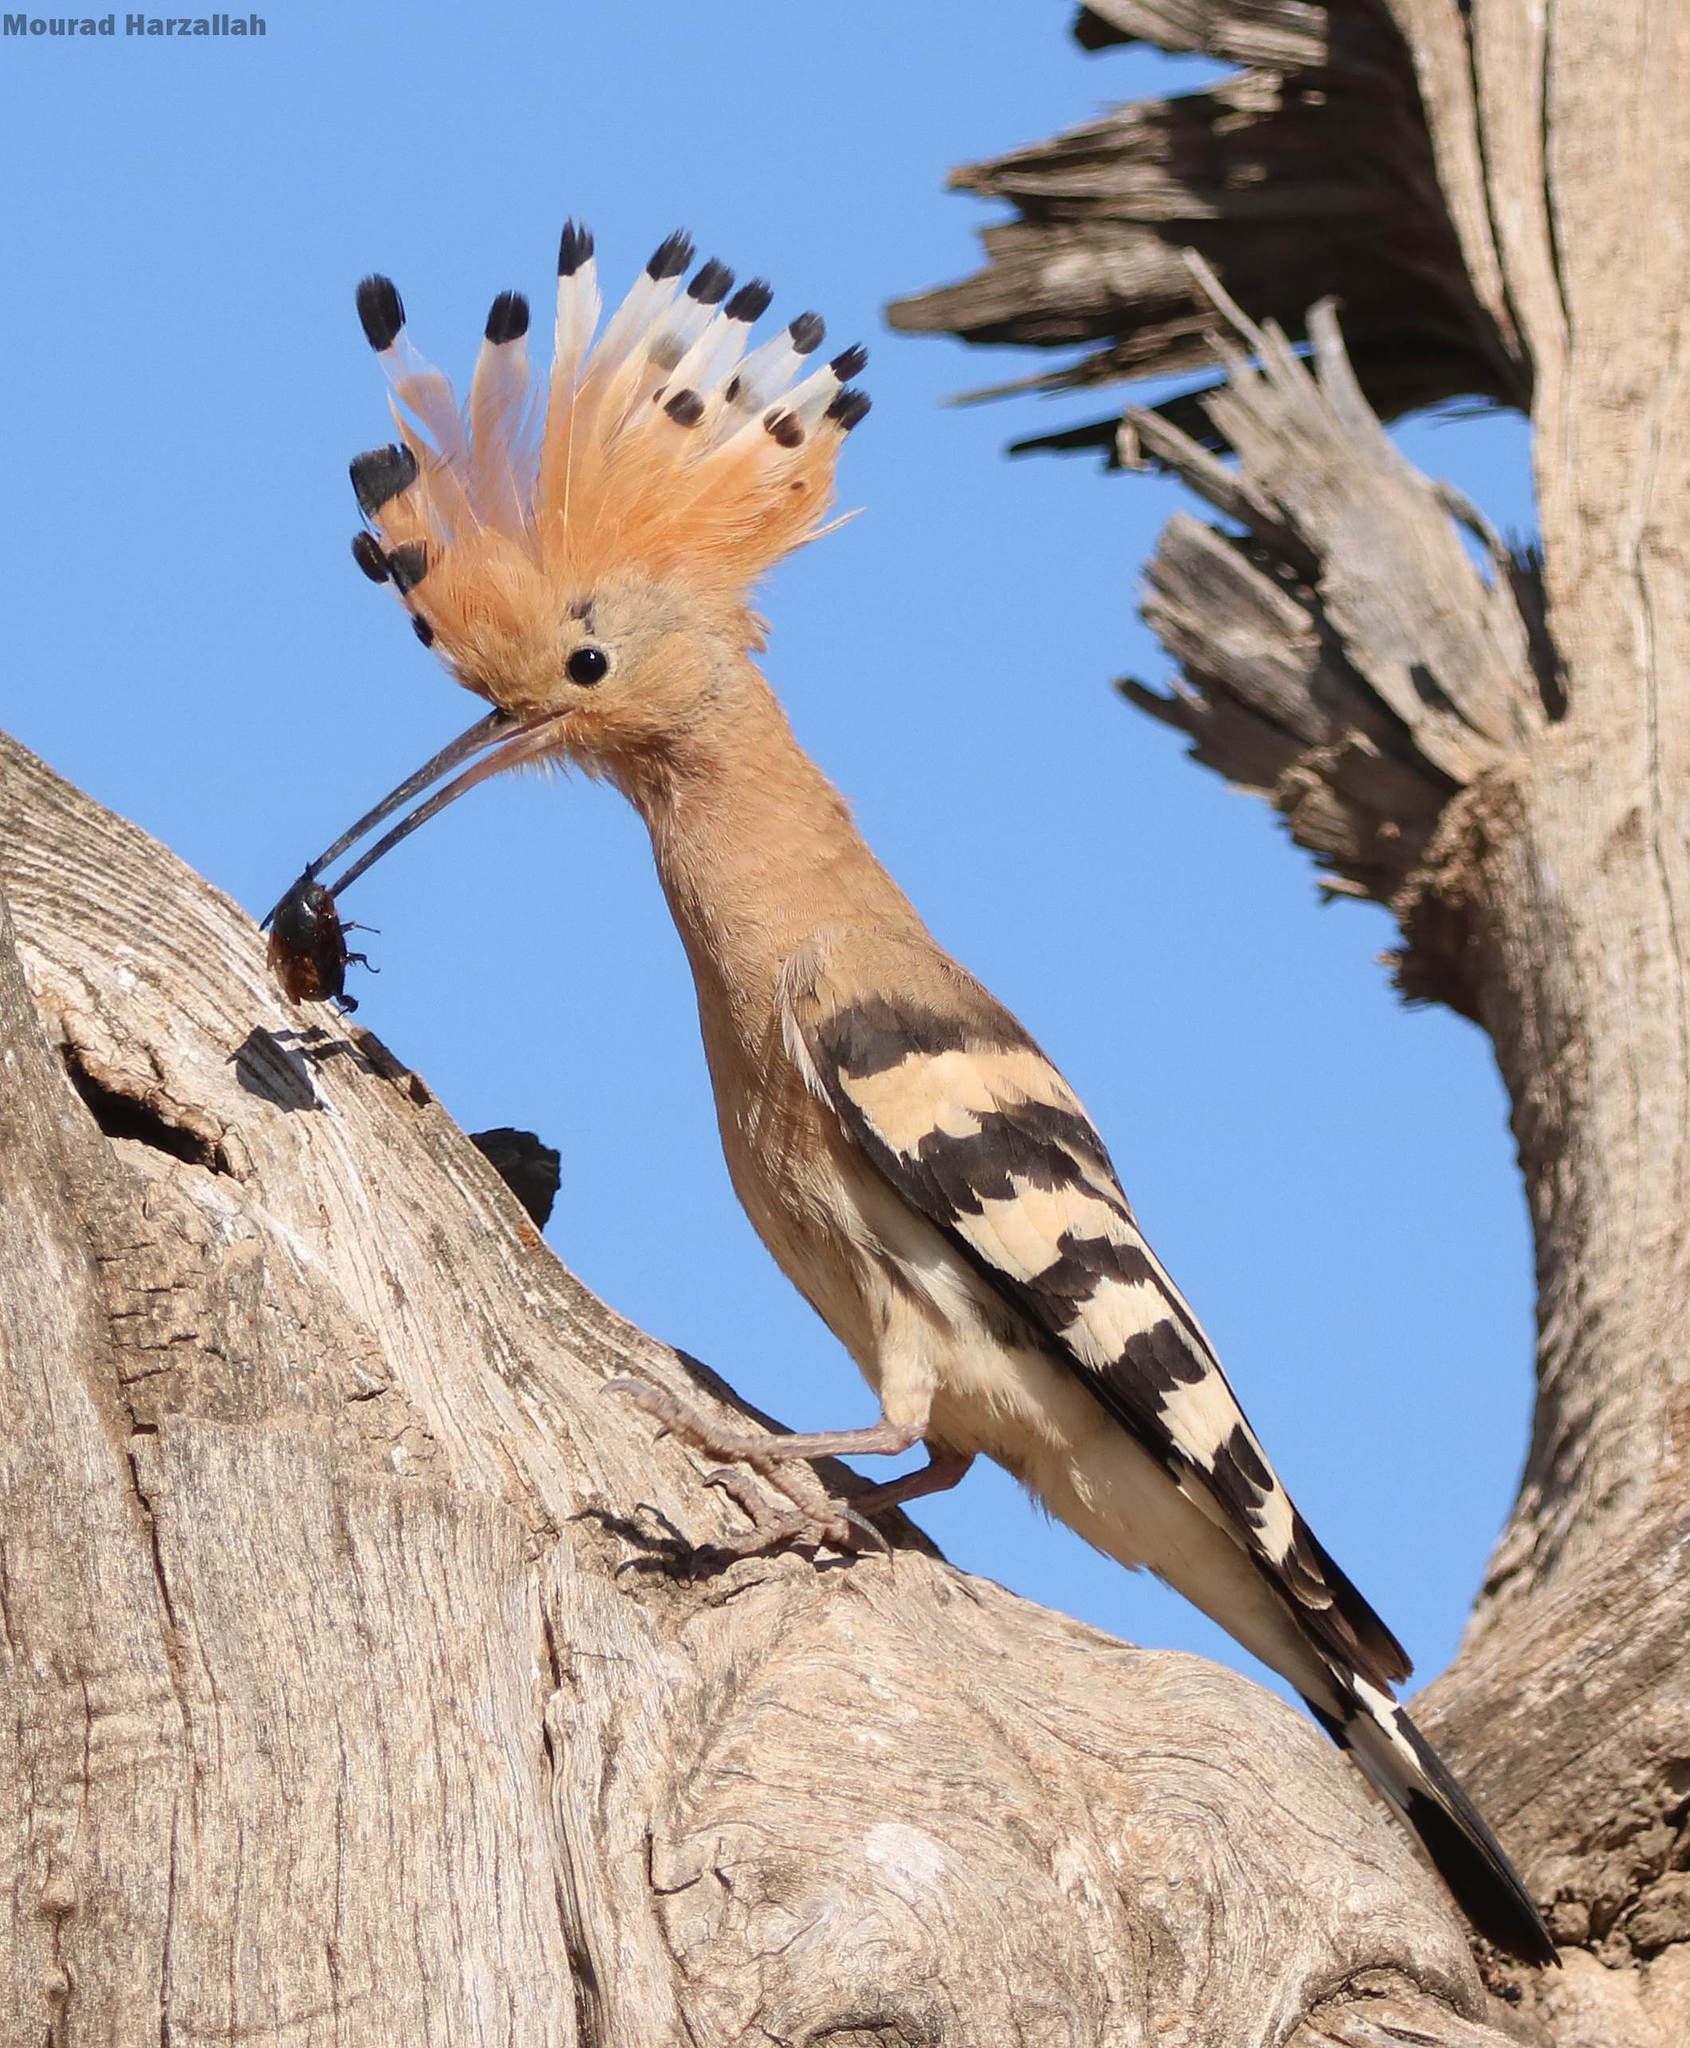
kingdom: Animalia
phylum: Chordata
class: Aves
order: Bucerotiformes
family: Upupidae
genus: Upupa
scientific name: Upupa epops
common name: Eurasian hoopoe
